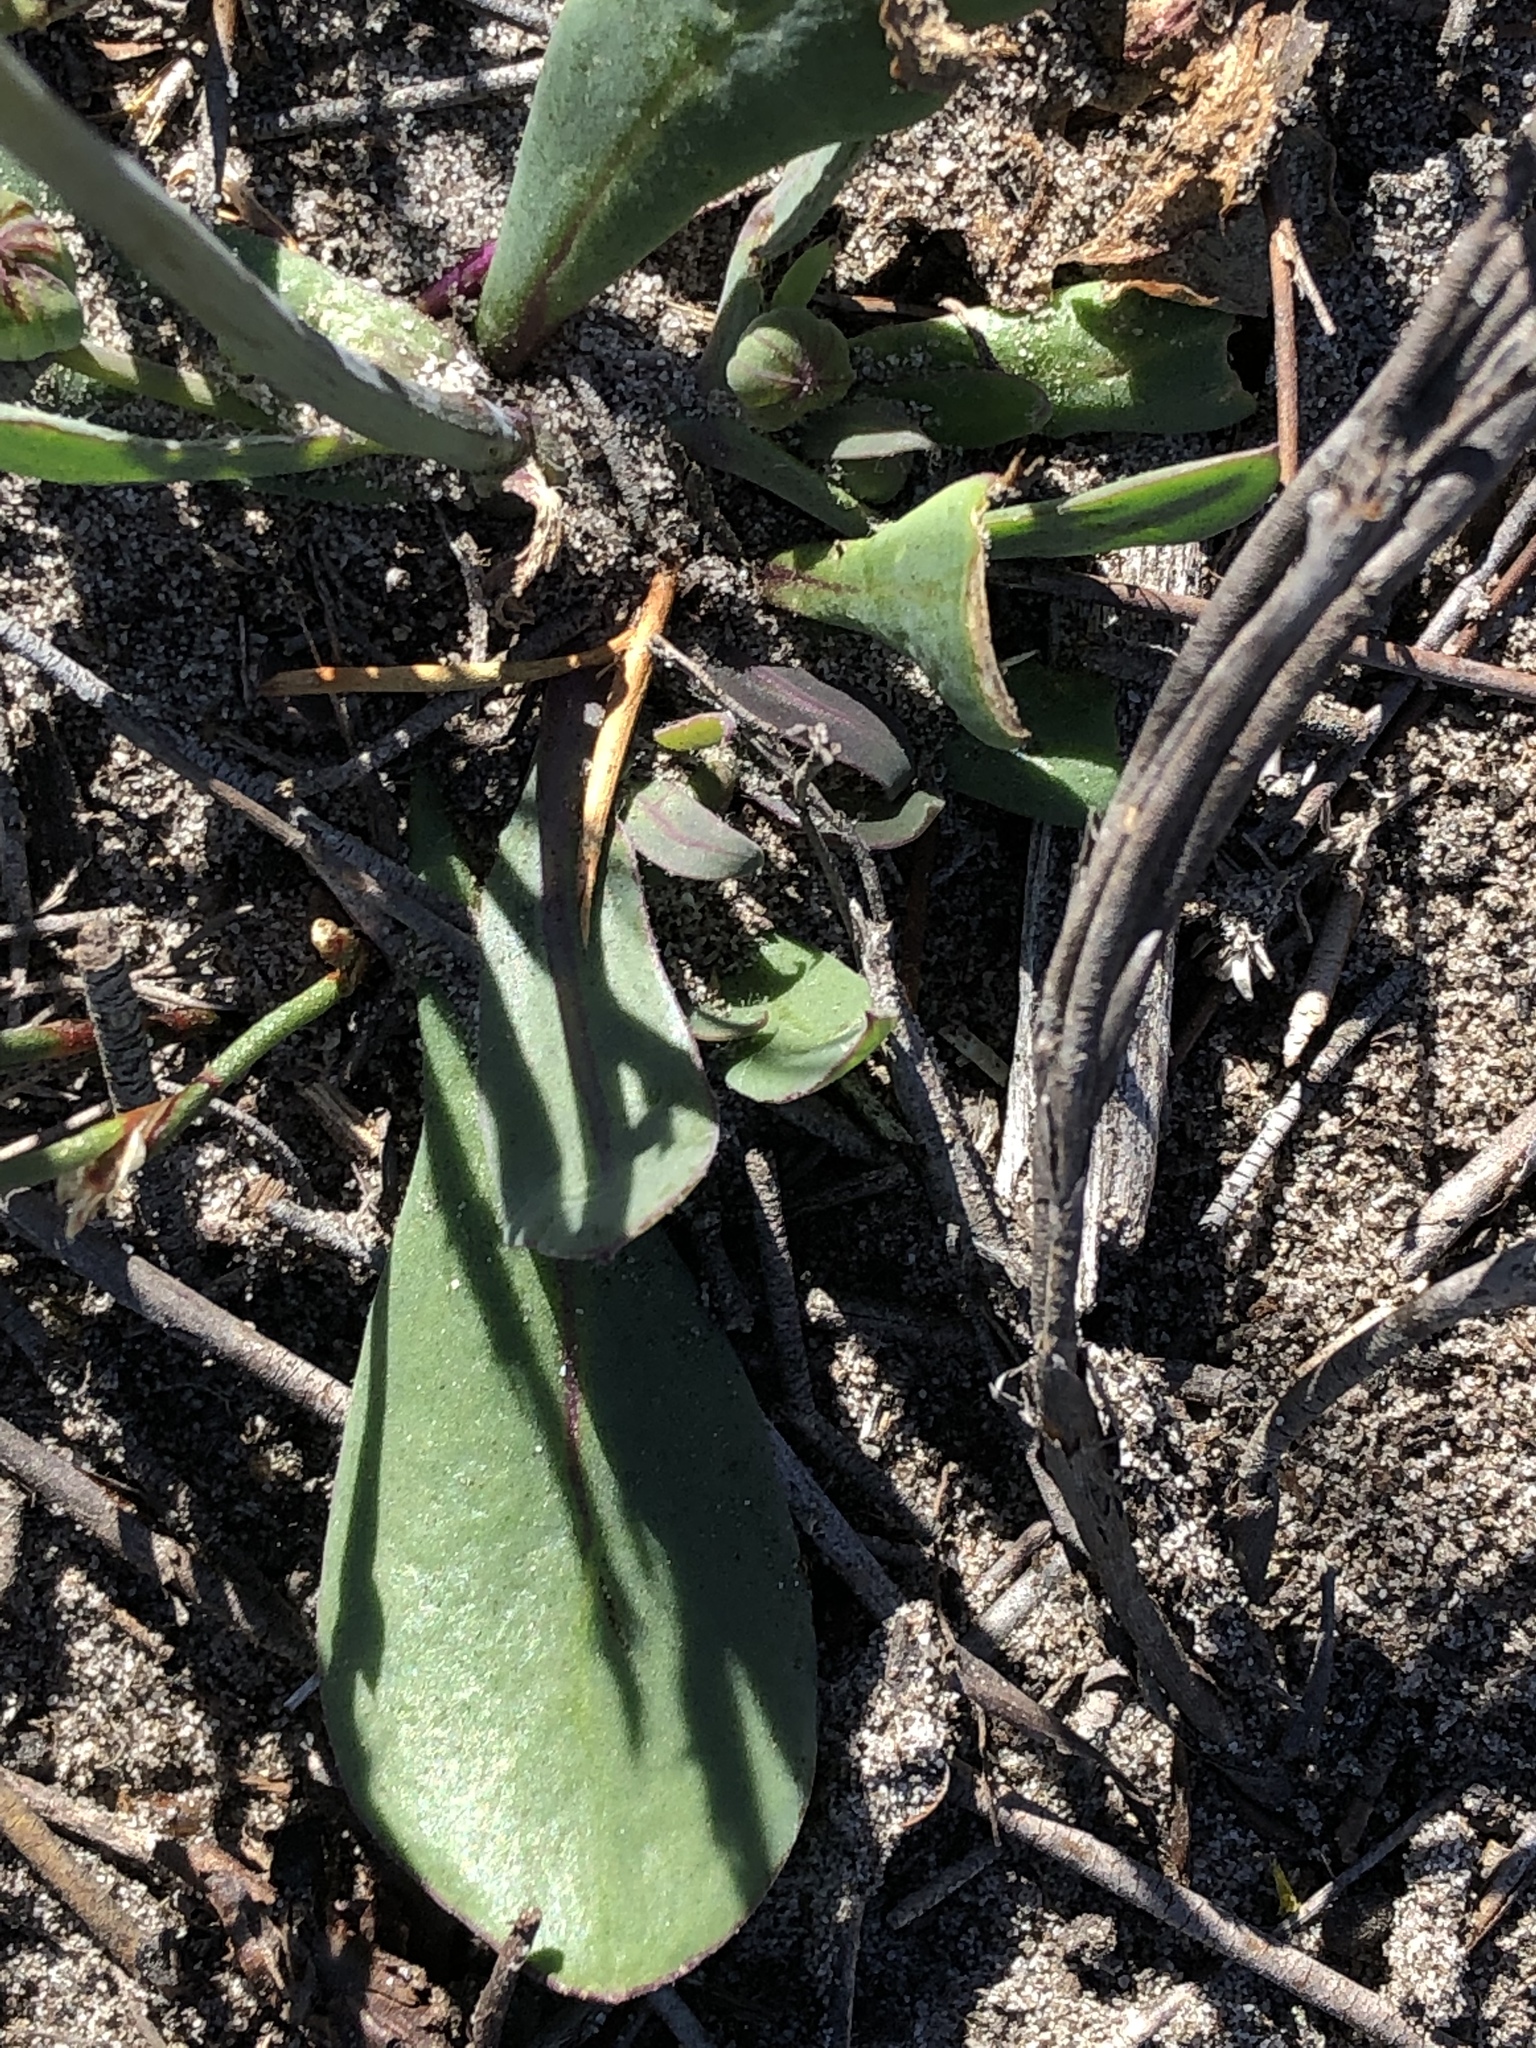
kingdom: Plantae
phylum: Tracheophyta
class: Magnoliopsida
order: Asterales
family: Asteraceae
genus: Othonna
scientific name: Othonna bulbosa
